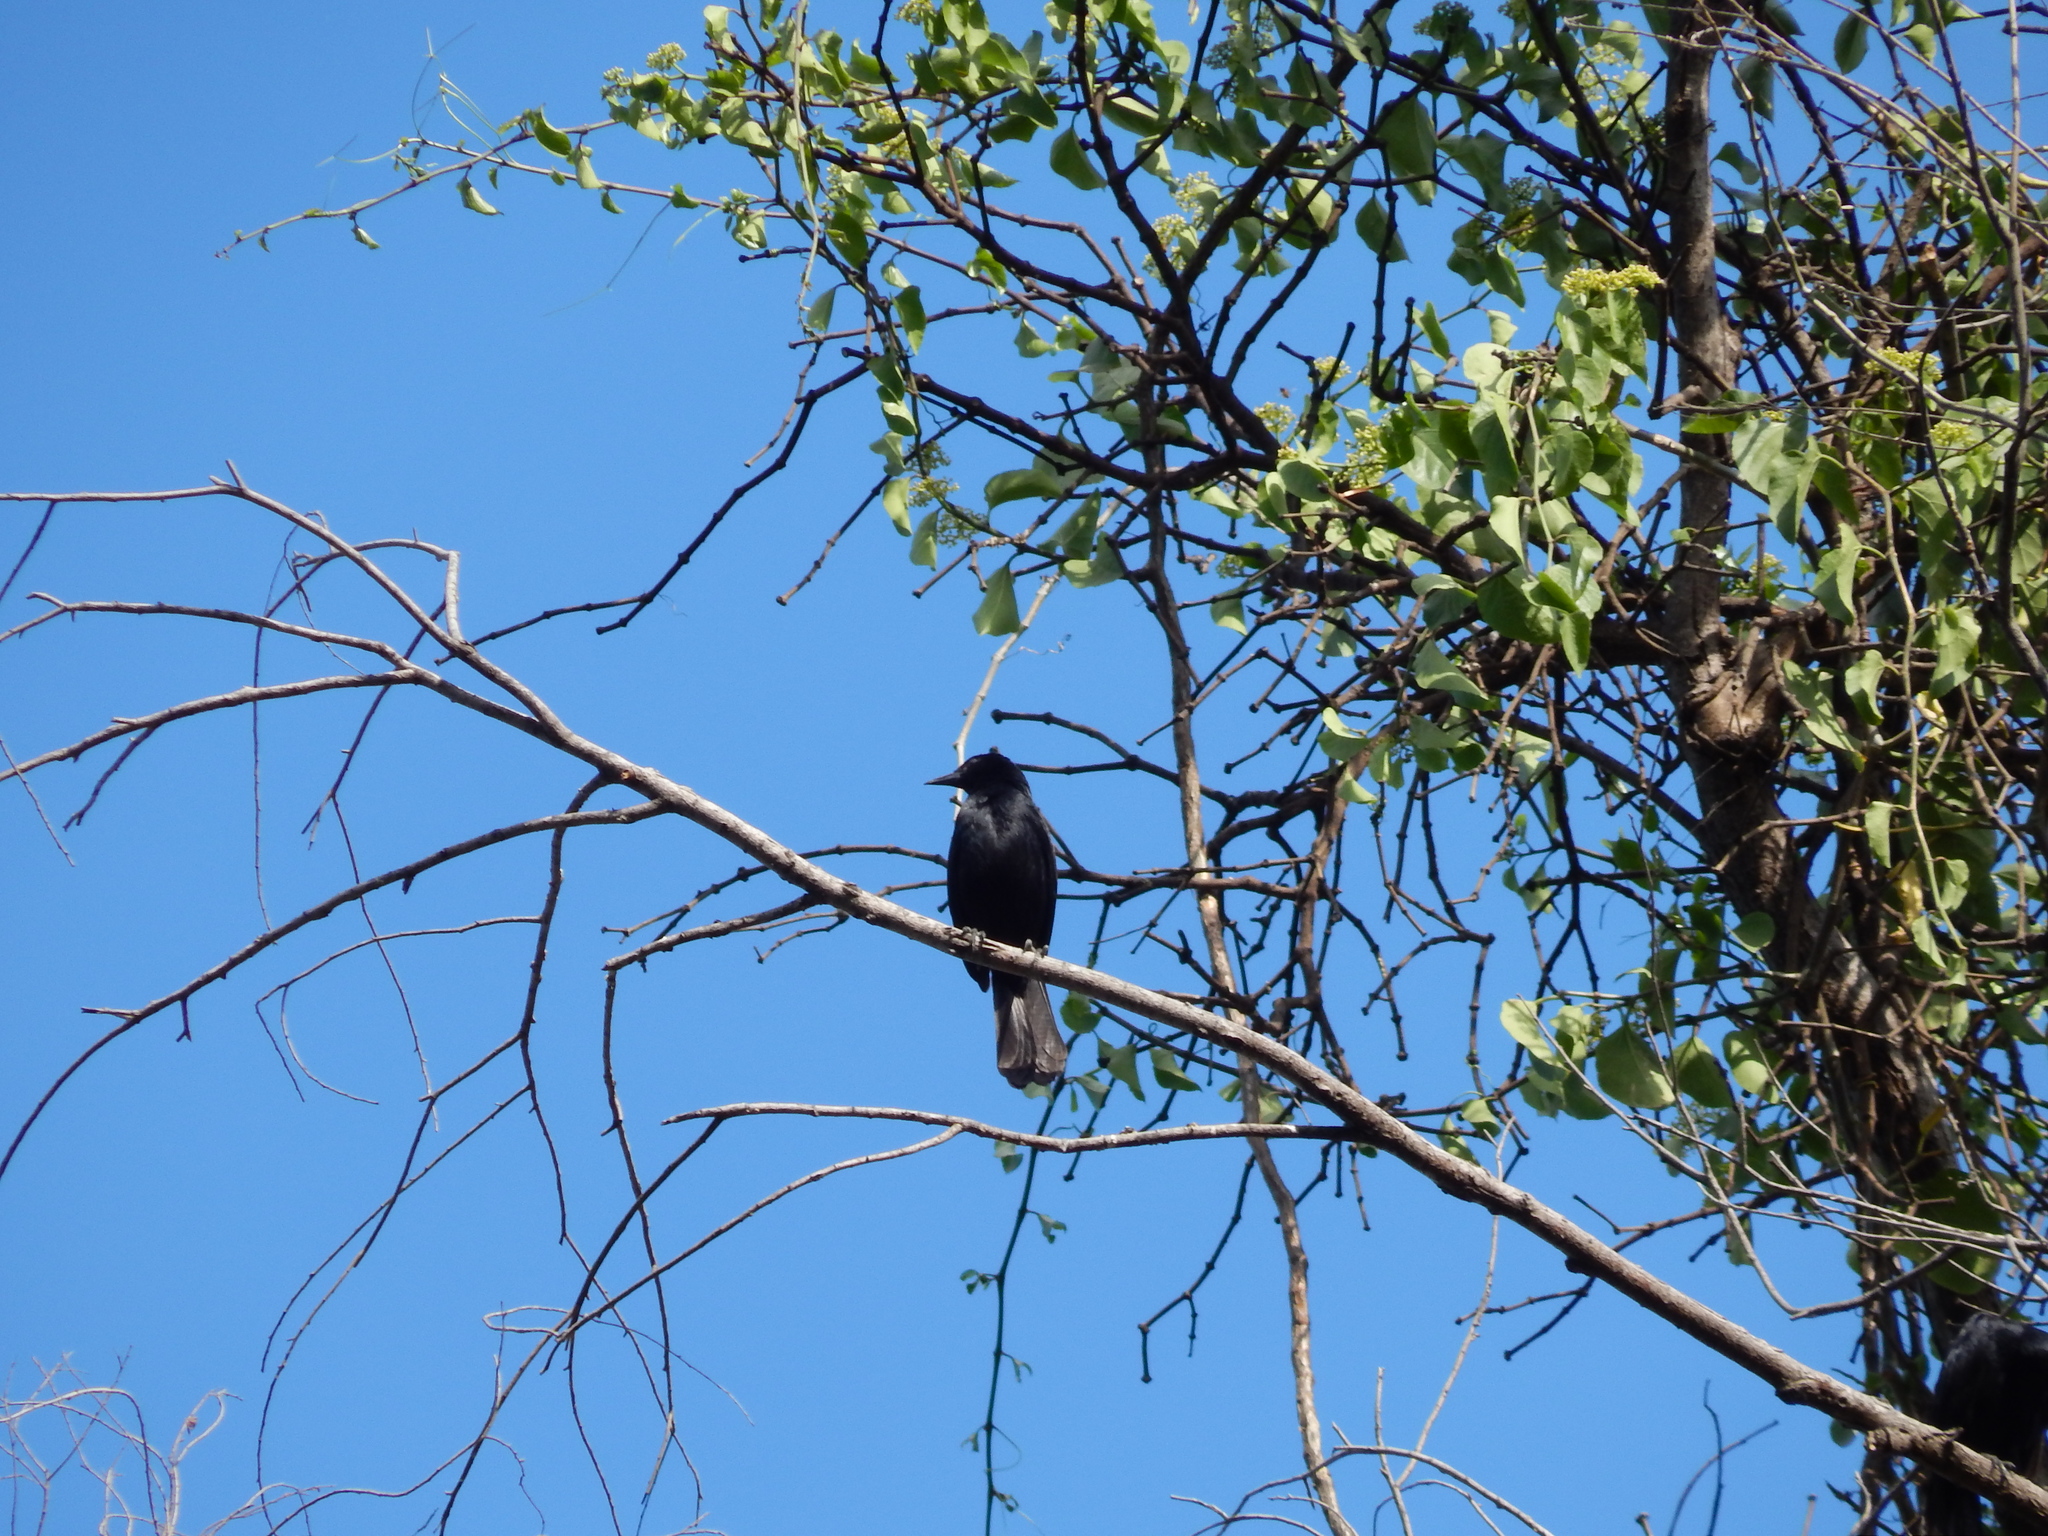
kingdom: Animalia
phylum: Chordata
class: Aves
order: Passeriformes
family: Icteridae
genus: Dives
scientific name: Dives dives
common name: Melodious blackbird
